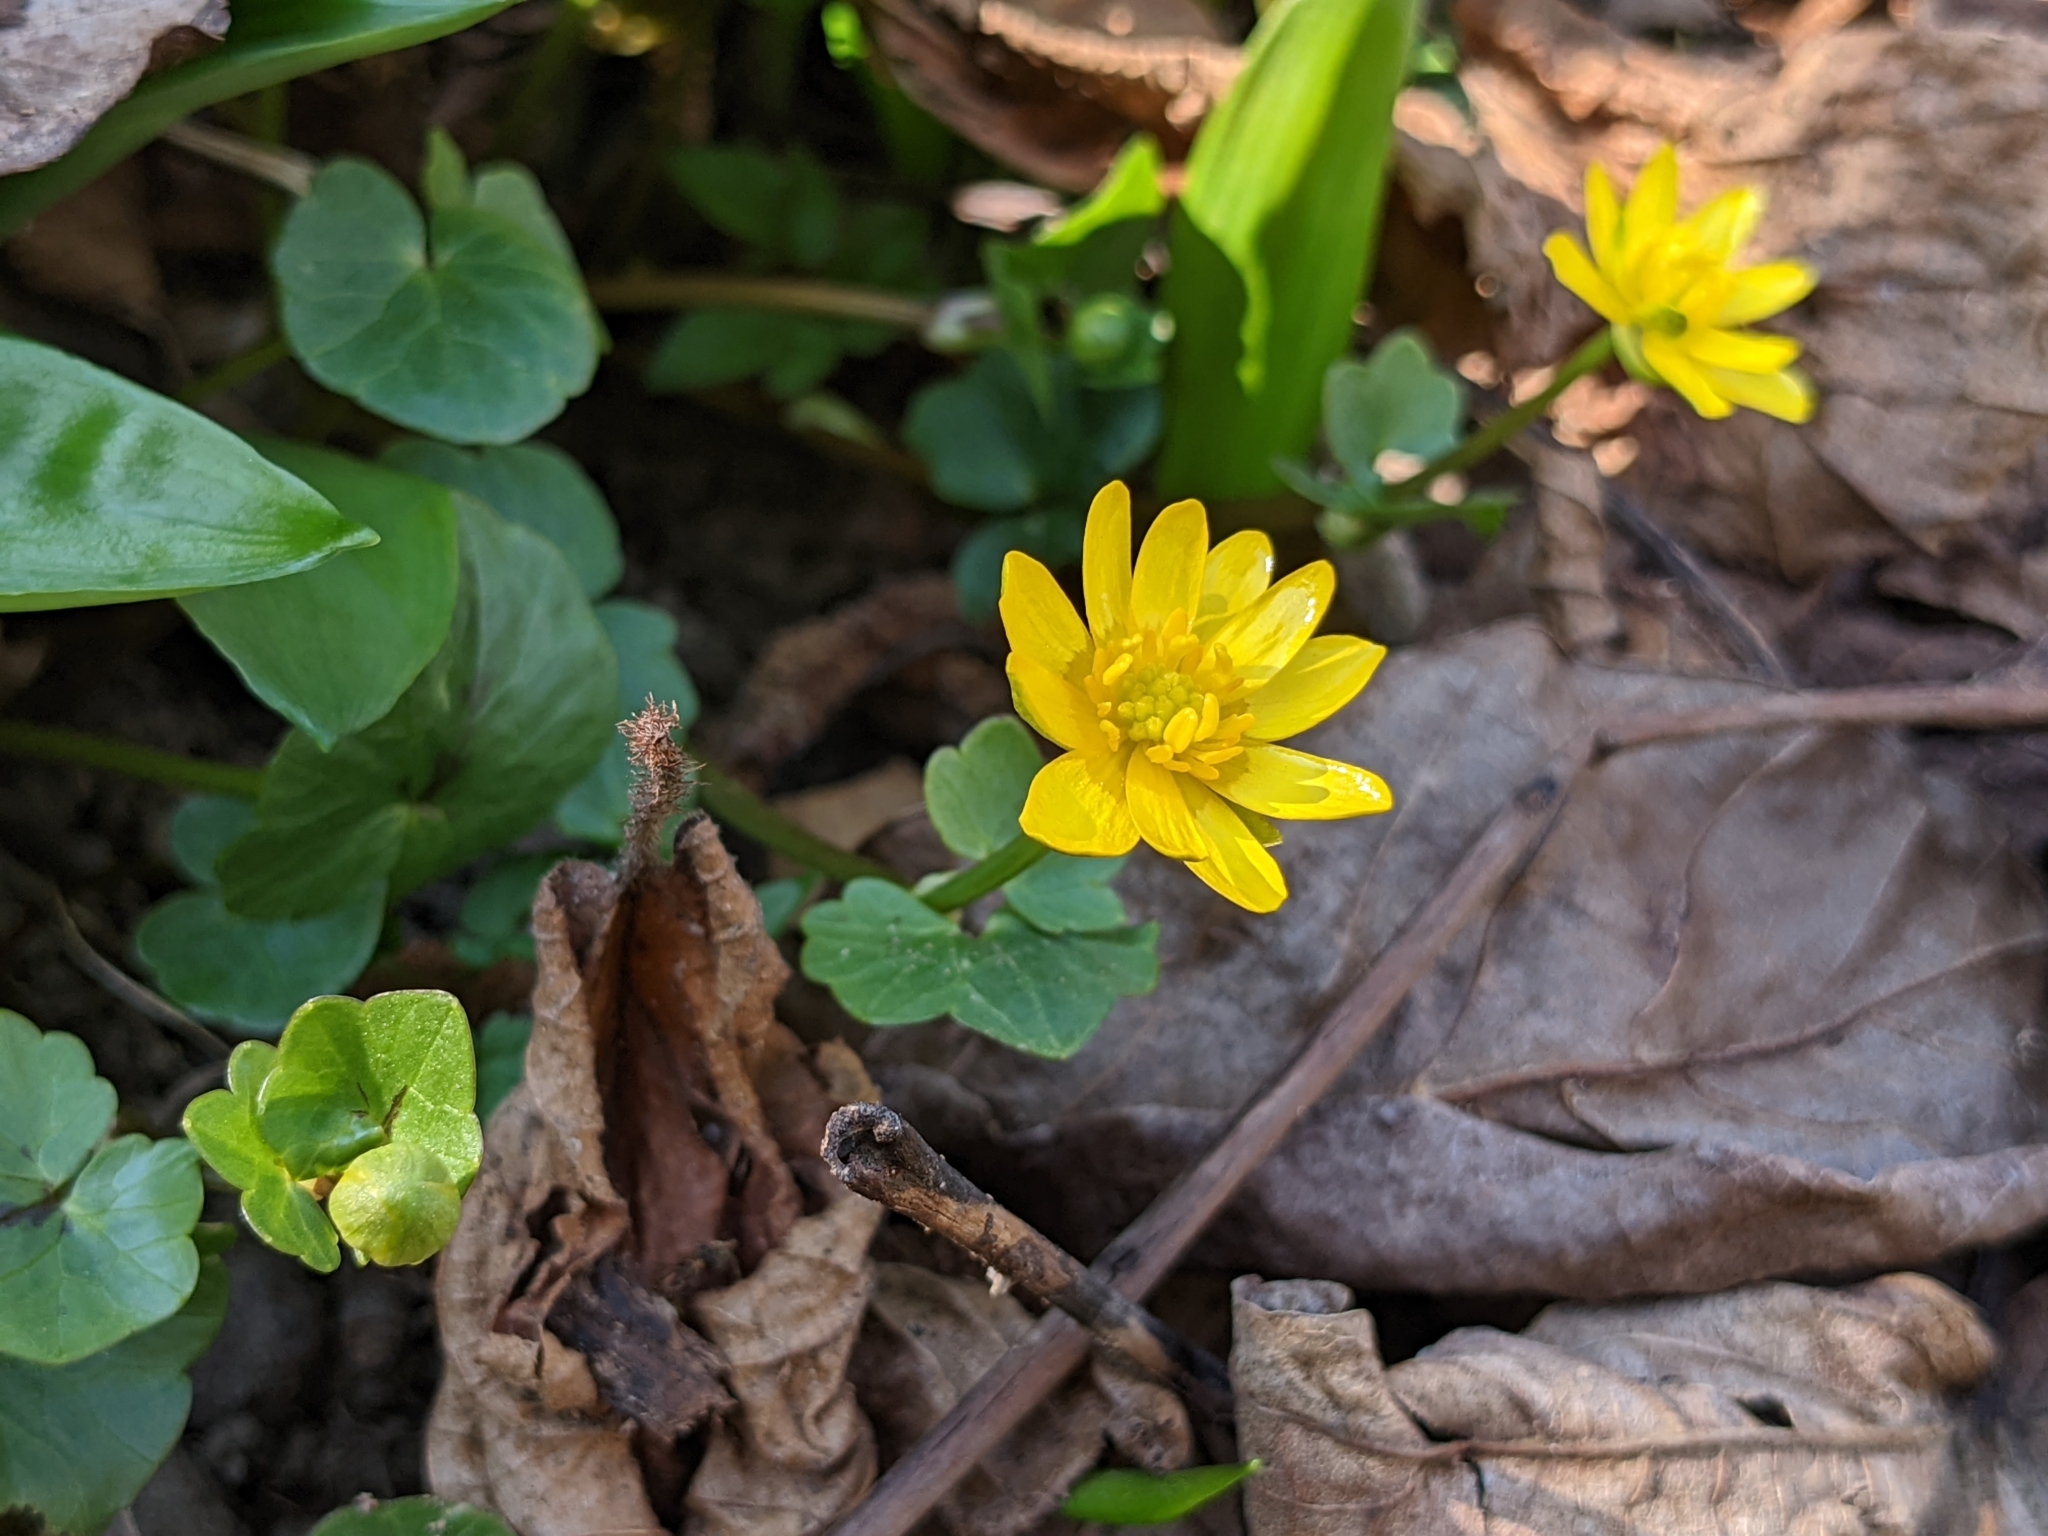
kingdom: Plantae
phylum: Tracheophyta
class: Magnoliopsida
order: Ranunculales
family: Ranunculaceae
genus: Ficaria
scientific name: Ficaria verna
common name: Lesser celandine
